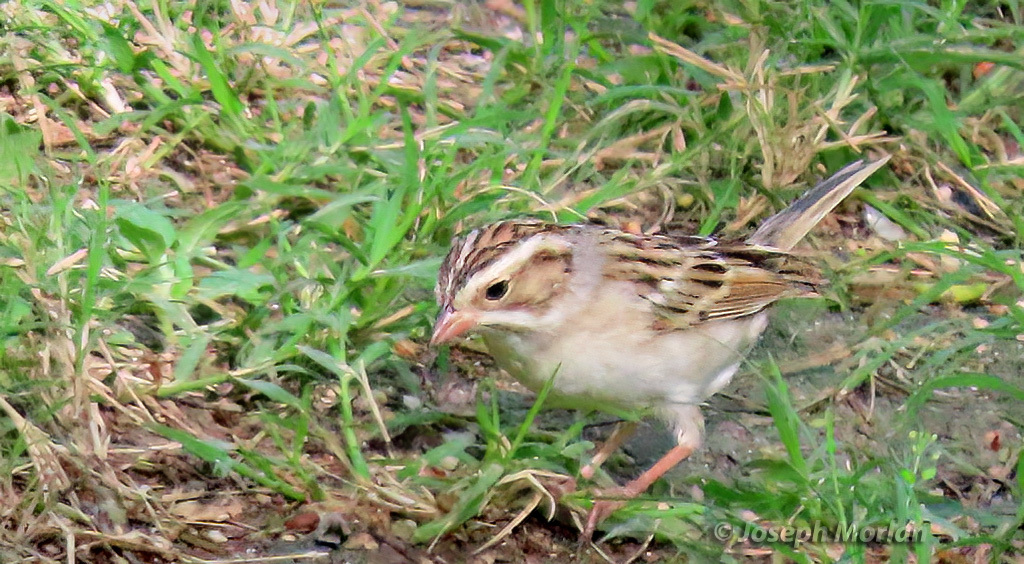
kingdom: Animalia
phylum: Chordata
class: Aves
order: Passeriformes
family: Passerellidae
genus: Spizella
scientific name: Spizella pallida
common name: Clay-colored sparrow
